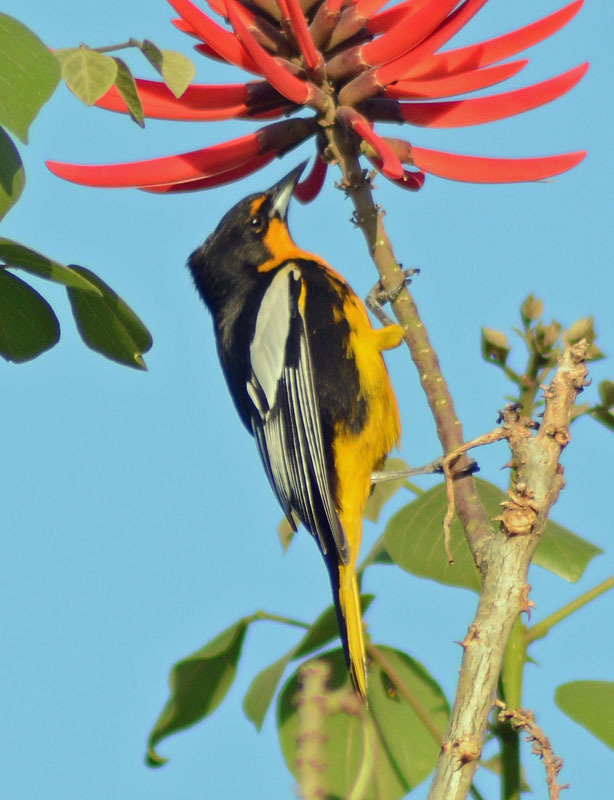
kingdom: Animalia
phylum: Chordata
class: Aves
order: Passeriformes
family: Icteridae
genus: Icterus
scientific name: Icterus abeillei
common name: Black-backed oriole
